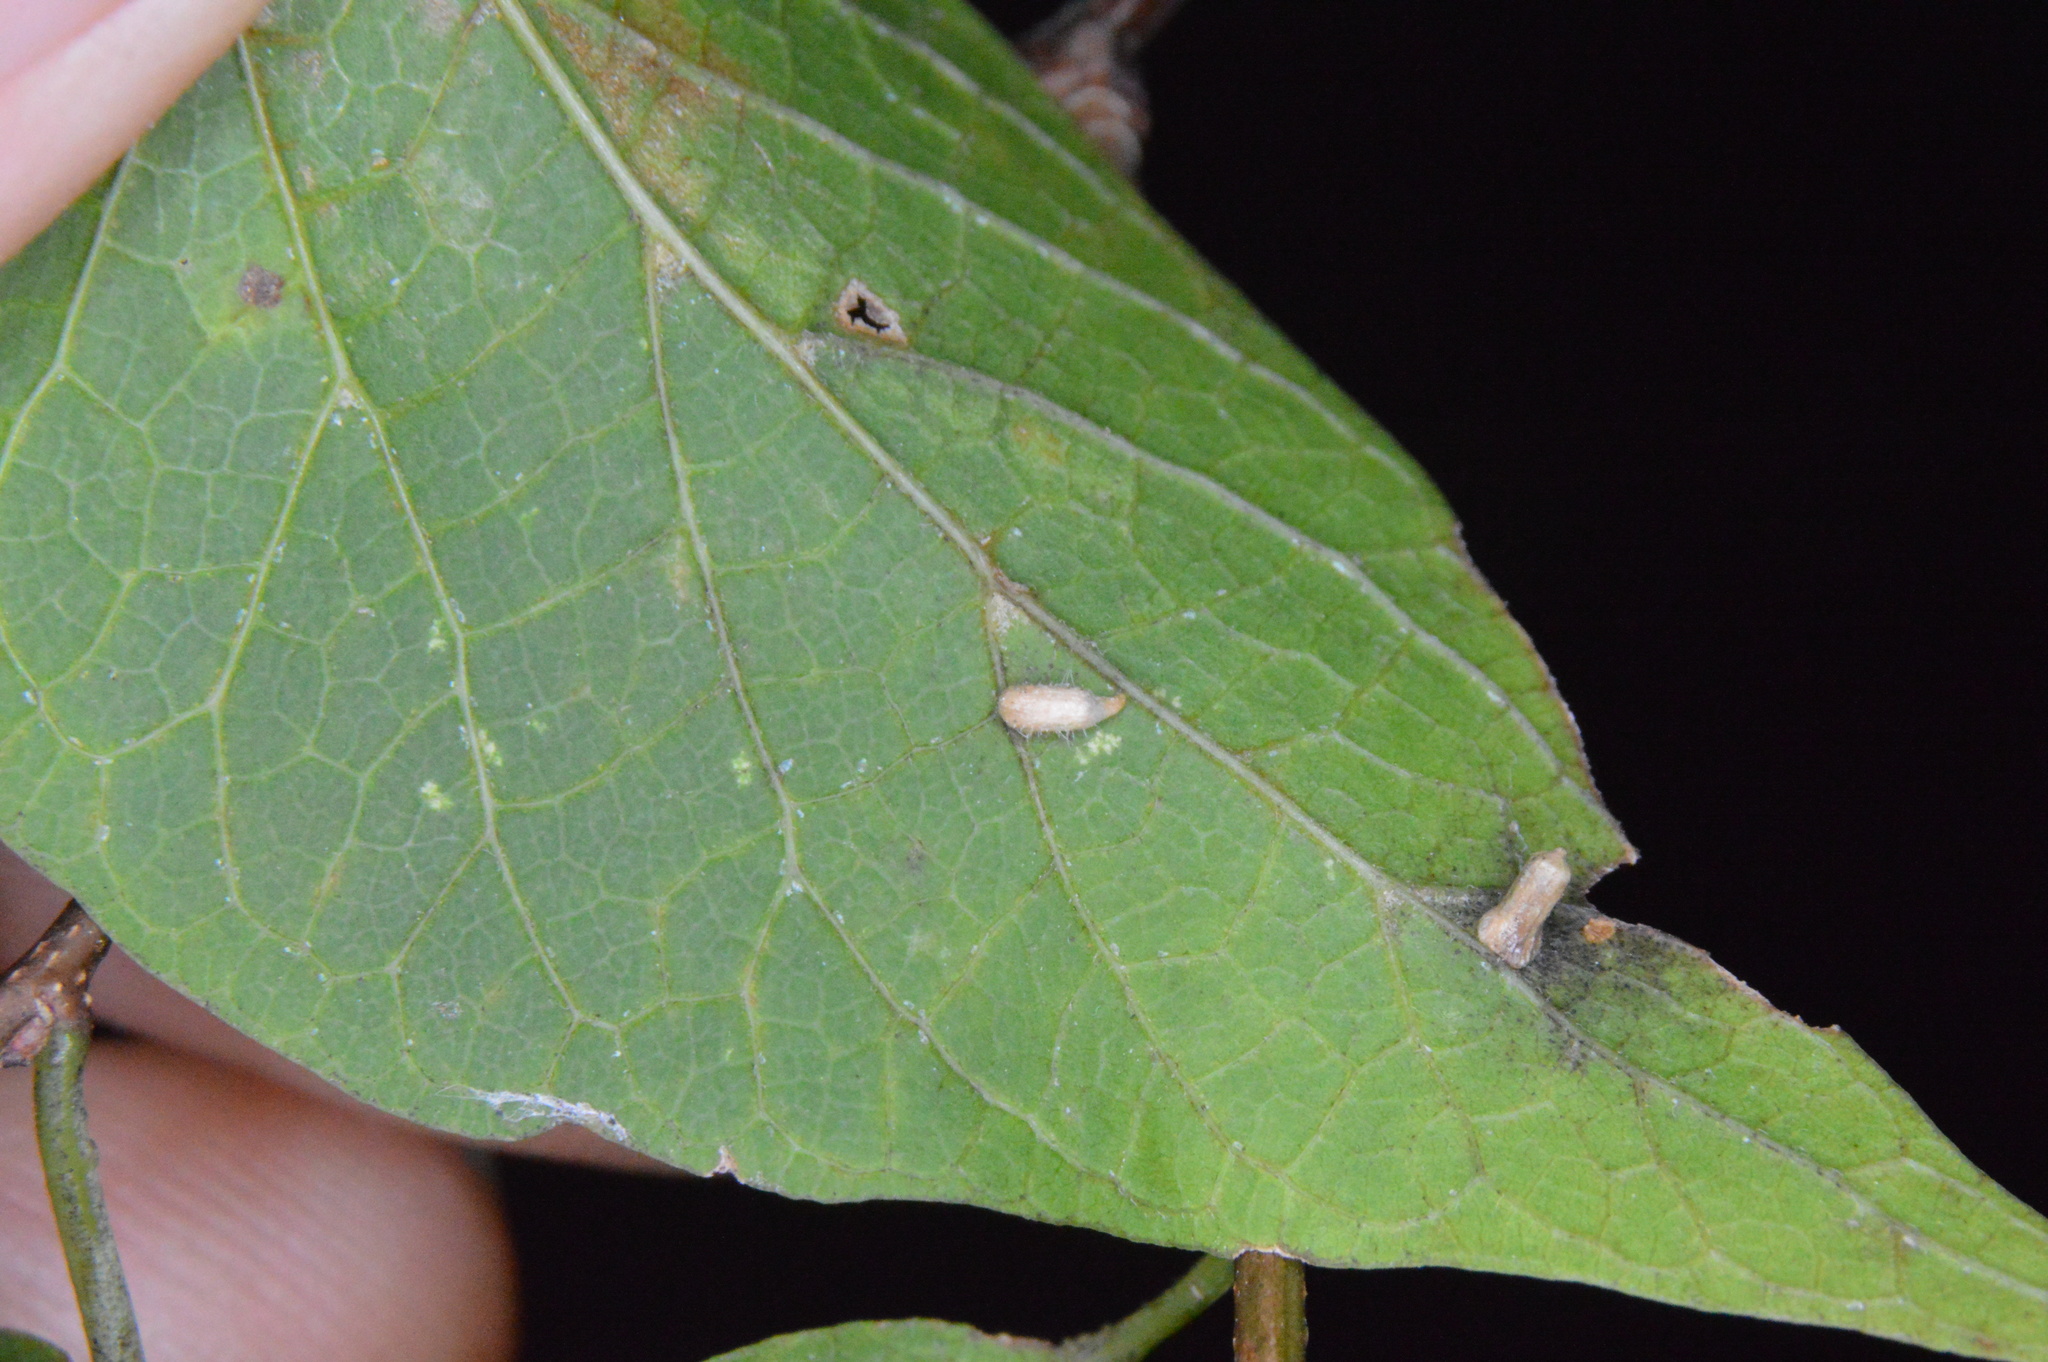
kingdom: Animalia
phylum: Arthropoda
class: Insecta
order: Diptera
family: Cecidomyiidae
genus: Celticecis
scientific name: Celticecis supina
